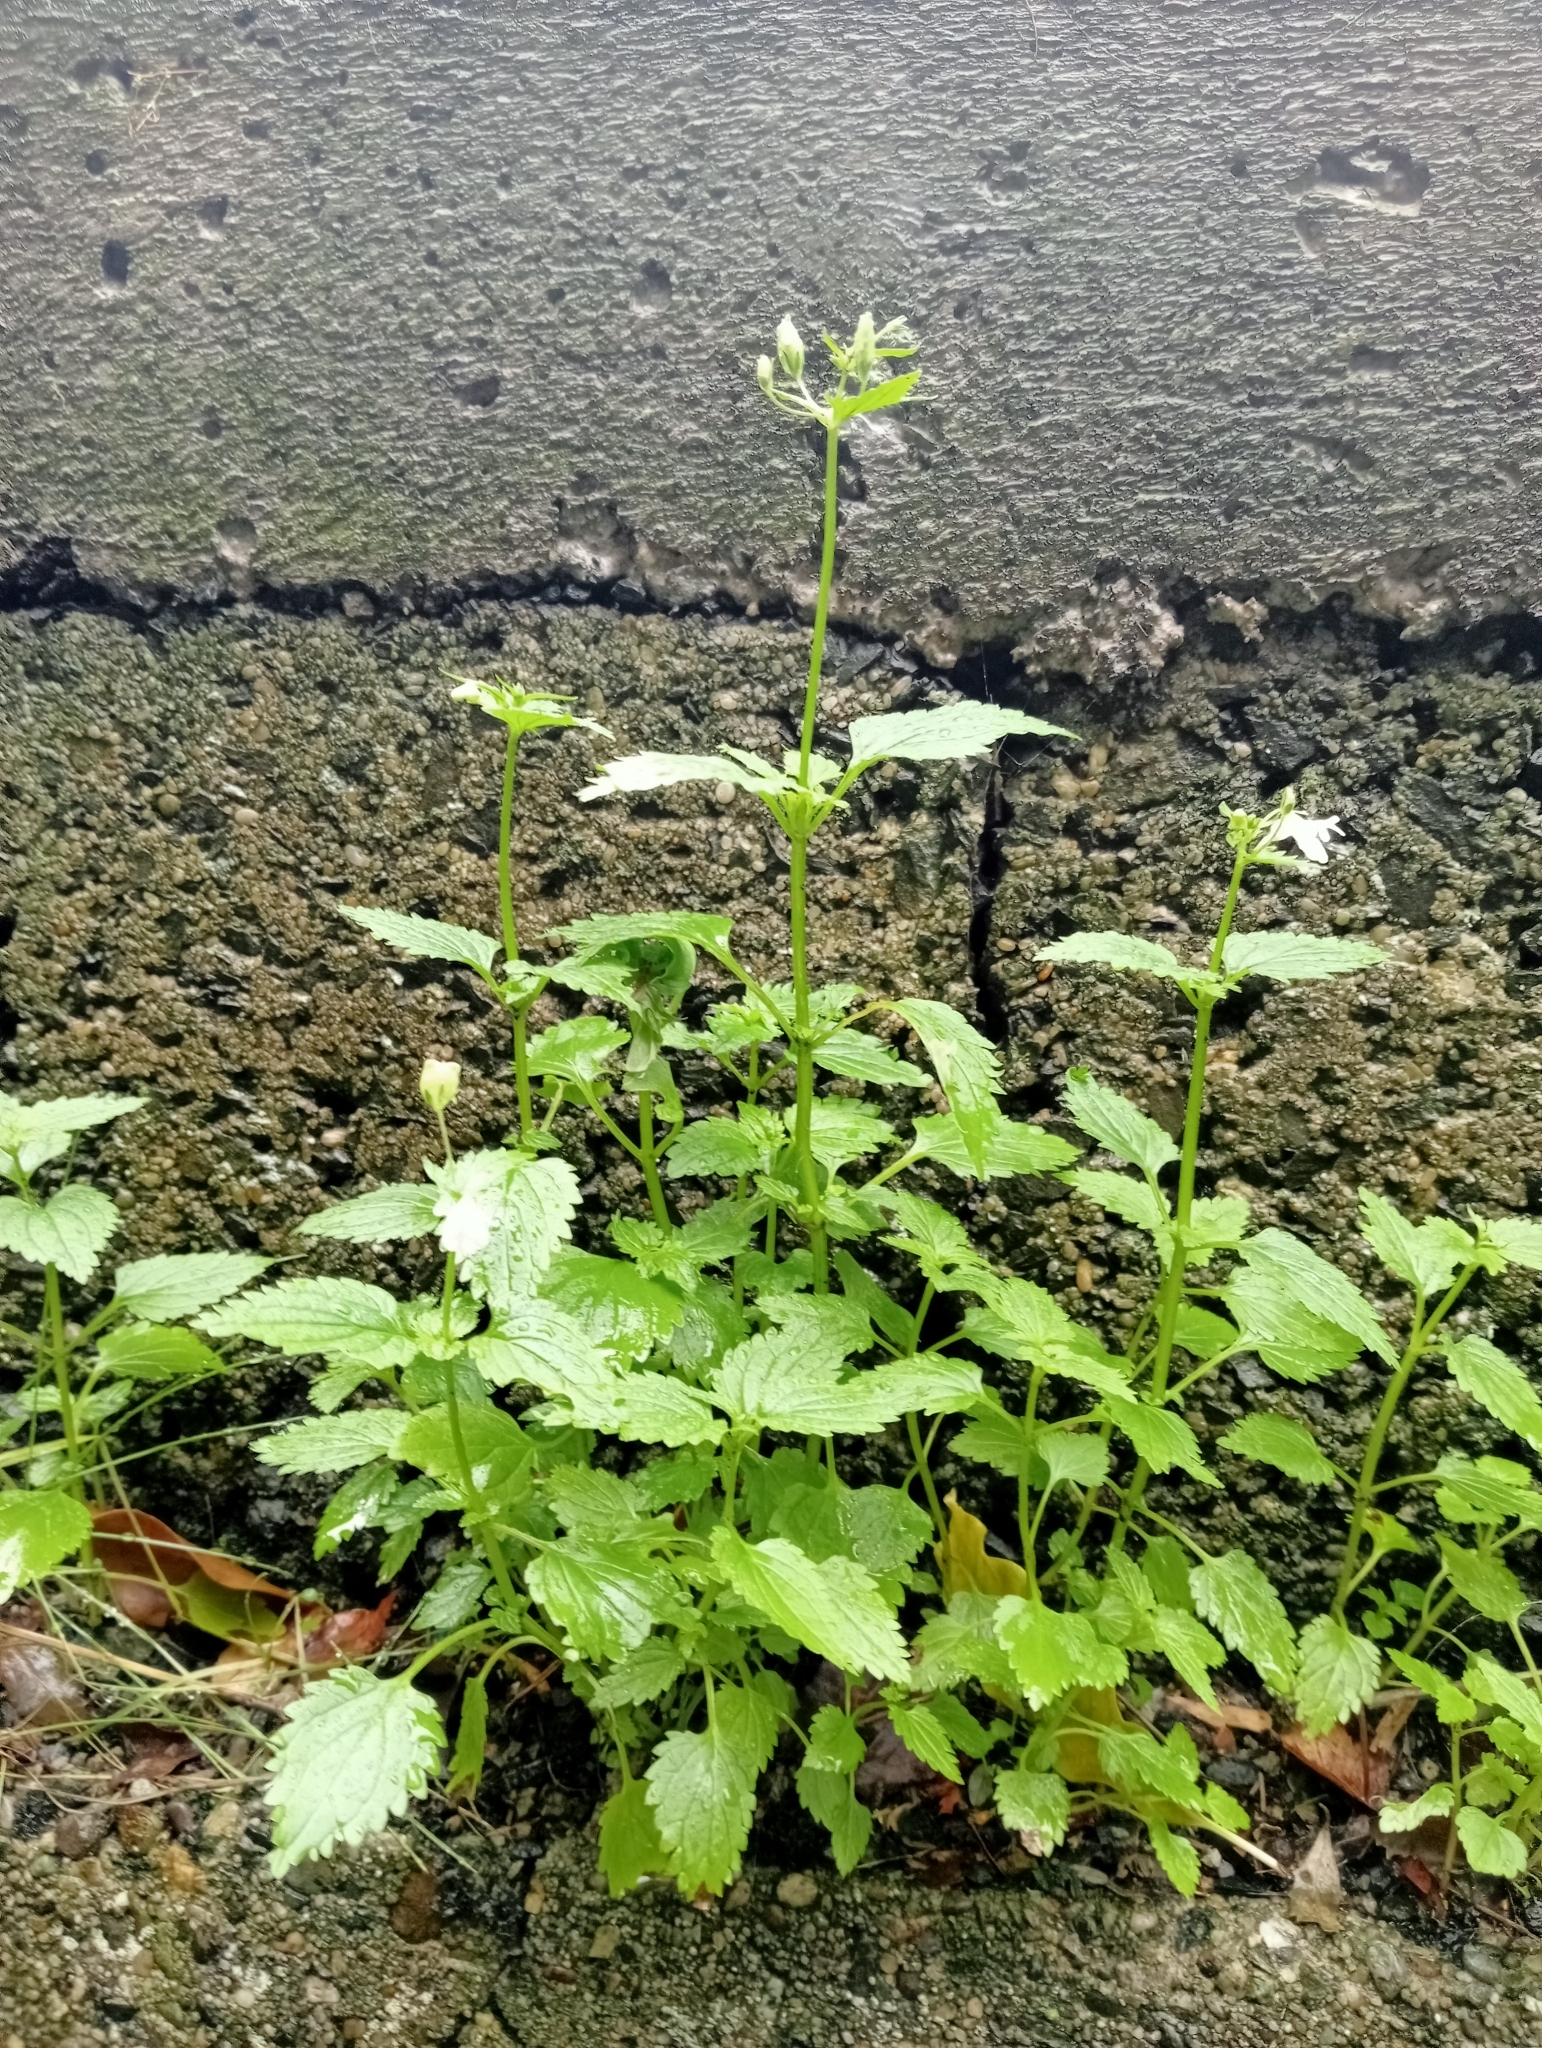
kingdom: Plantae
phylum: Tracheophyta
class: Magnoliopsida
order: Lamiales
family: Scrophulariaceae
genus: Nemesia
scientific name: Nemesia floribunda
